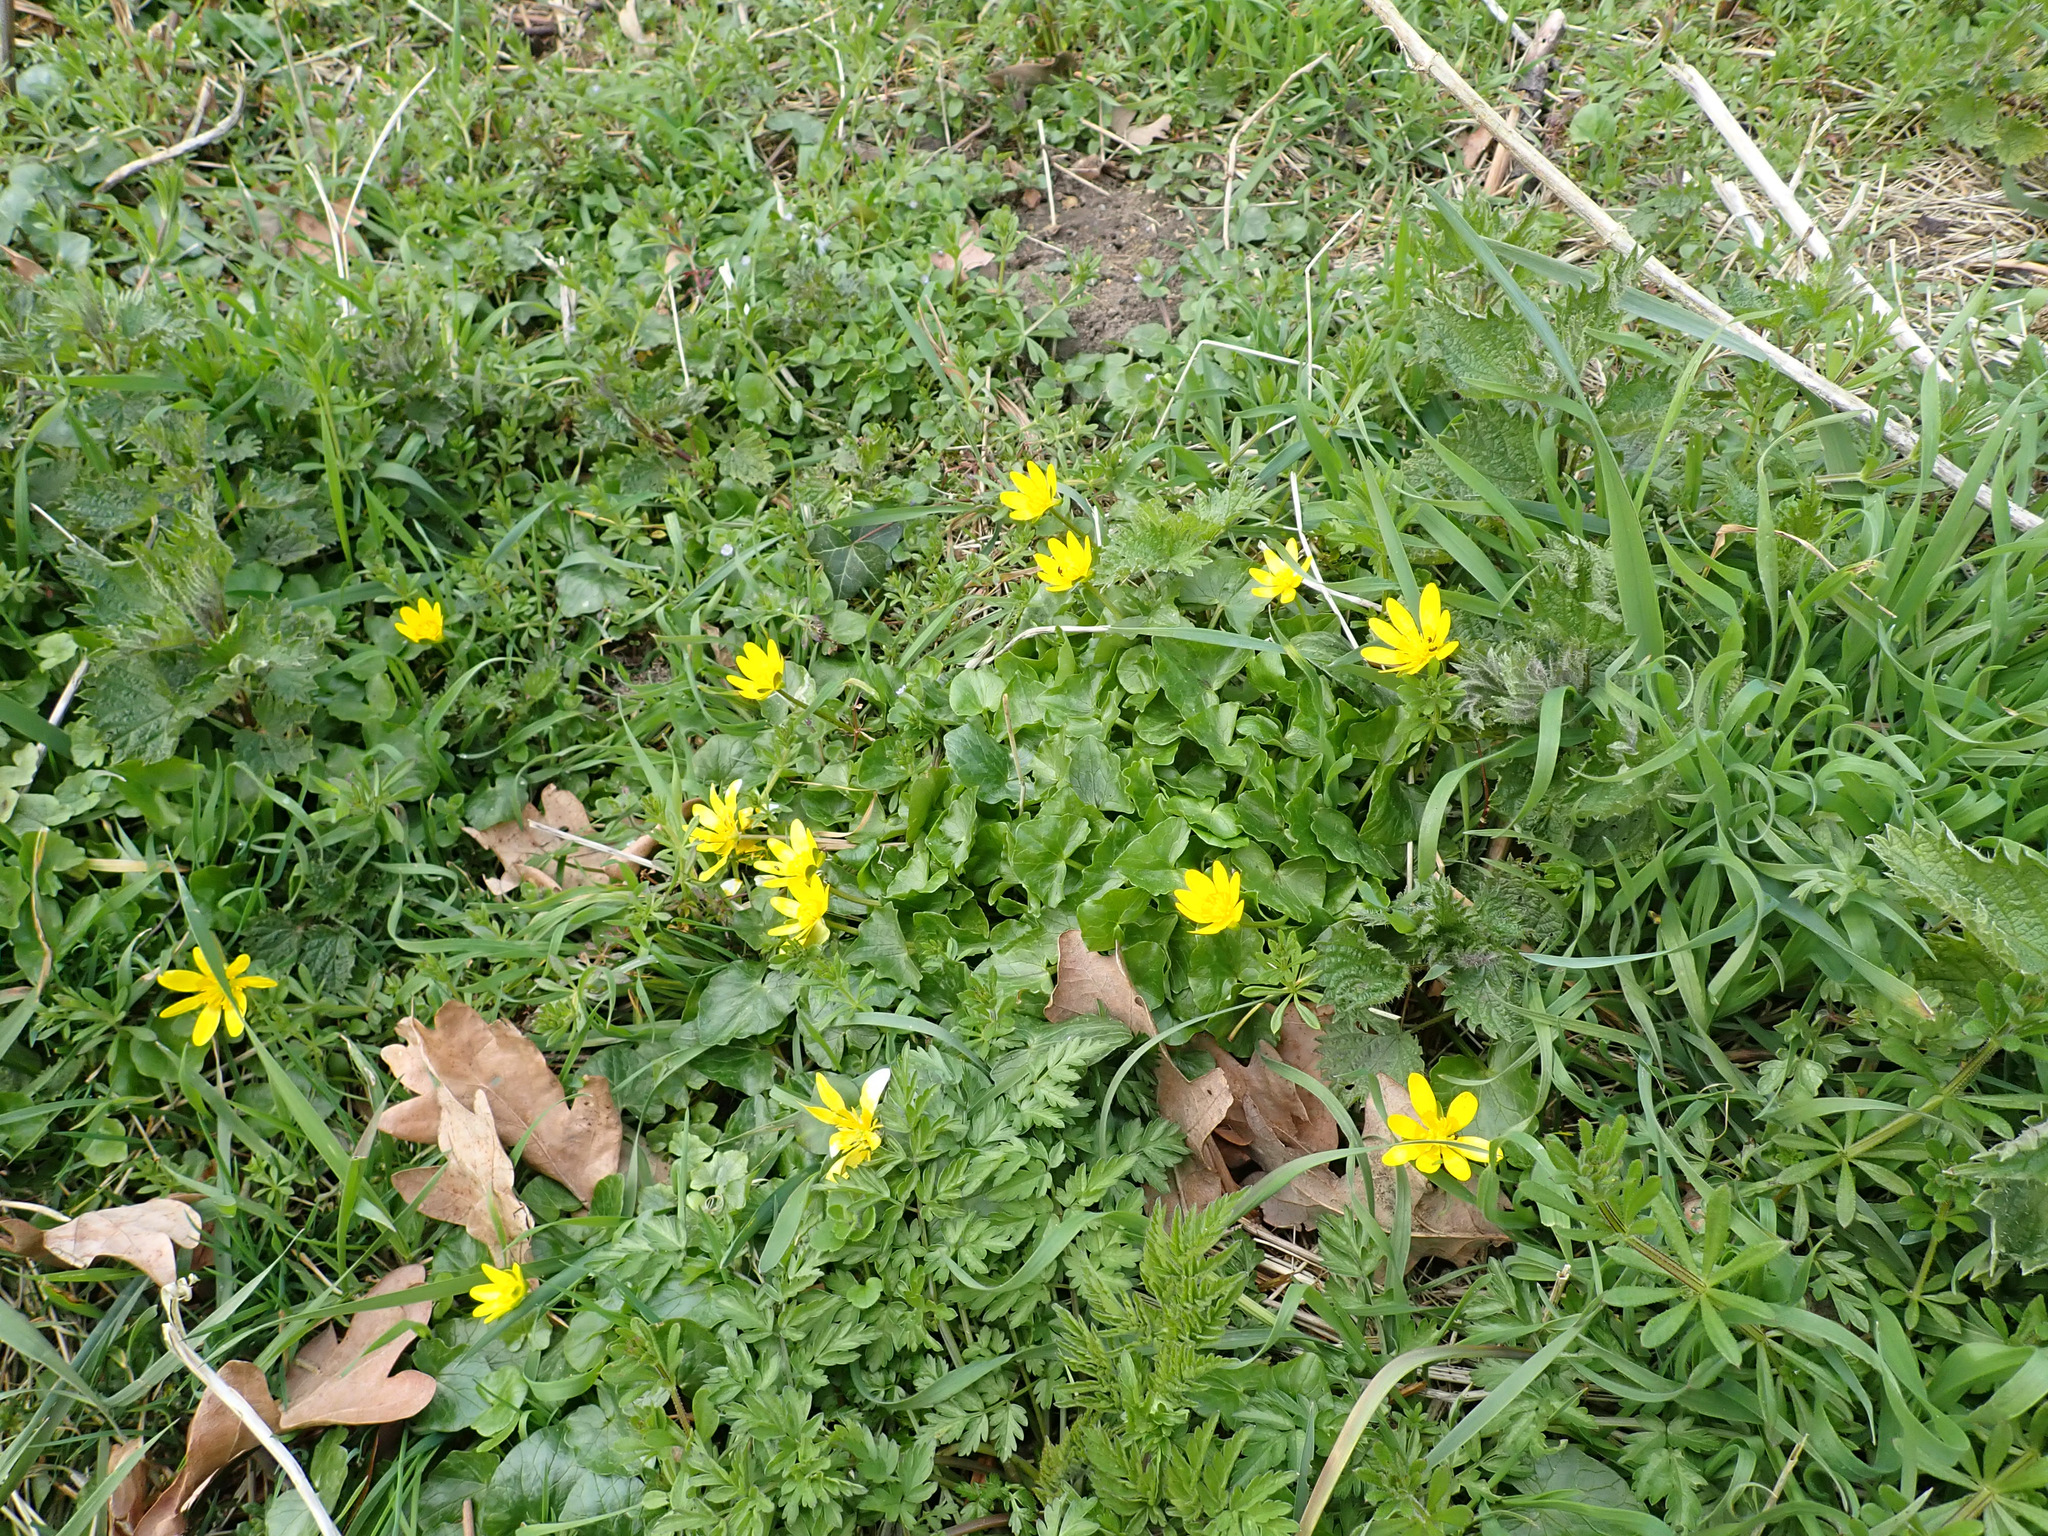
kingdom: Plantae
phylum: Tracheophyta
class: Magnoliopsida
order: Ranunculales
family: Ranunculaceae
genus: Ficaria
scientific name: Ficaria verna
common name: Lesser celandine
